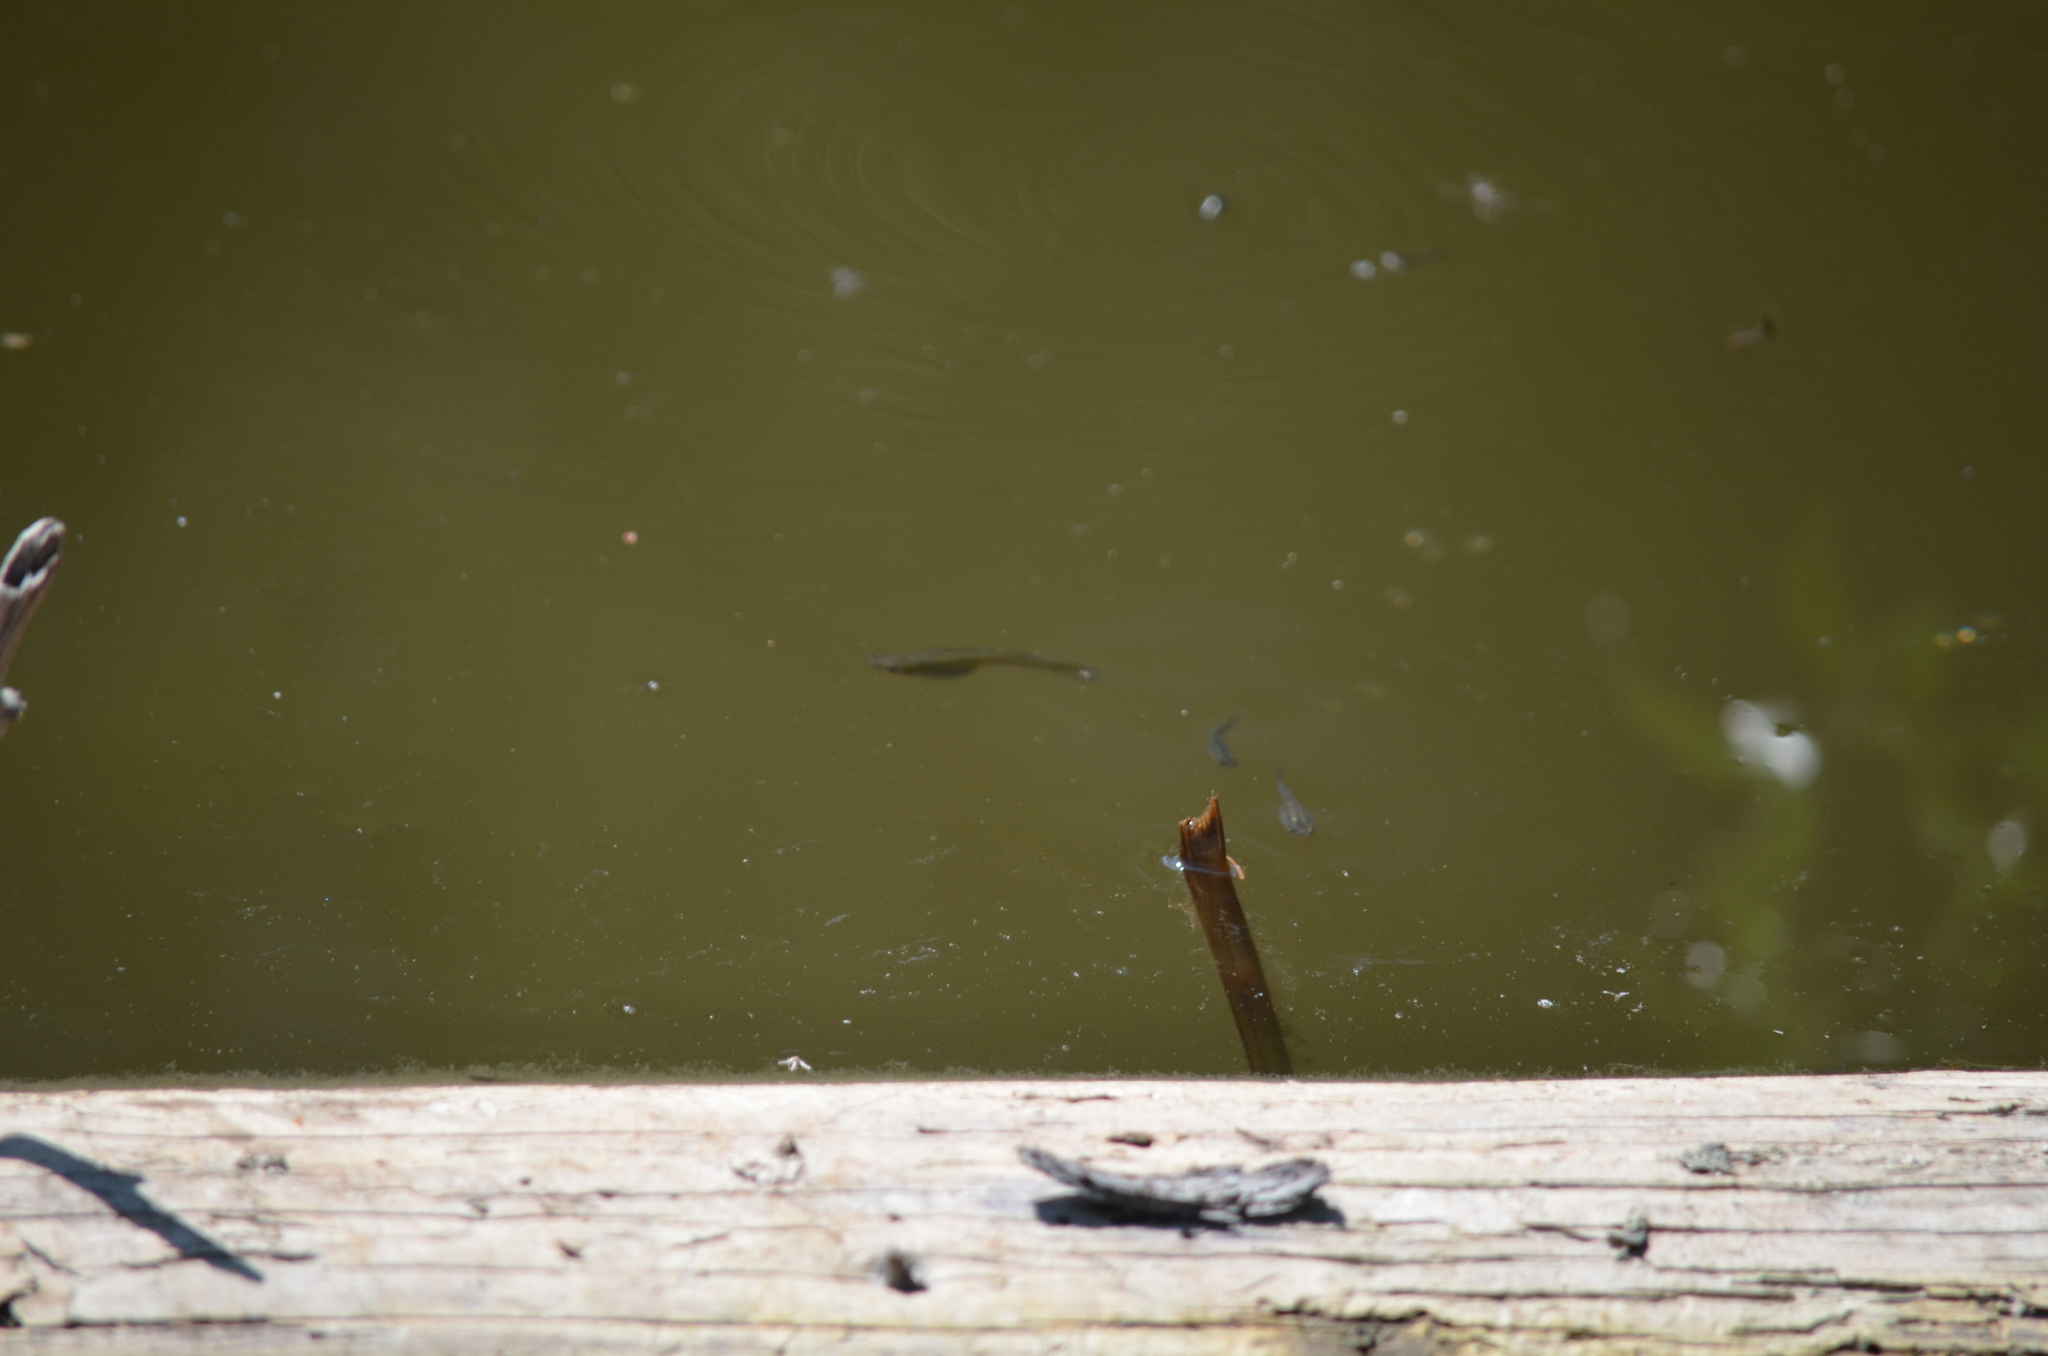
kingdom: Animalia
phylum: Chordata
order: Cyprinodontiformes
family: Poeciliidae
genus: Gambusia
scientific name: Gambusia affinis
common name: Mosquitofish
